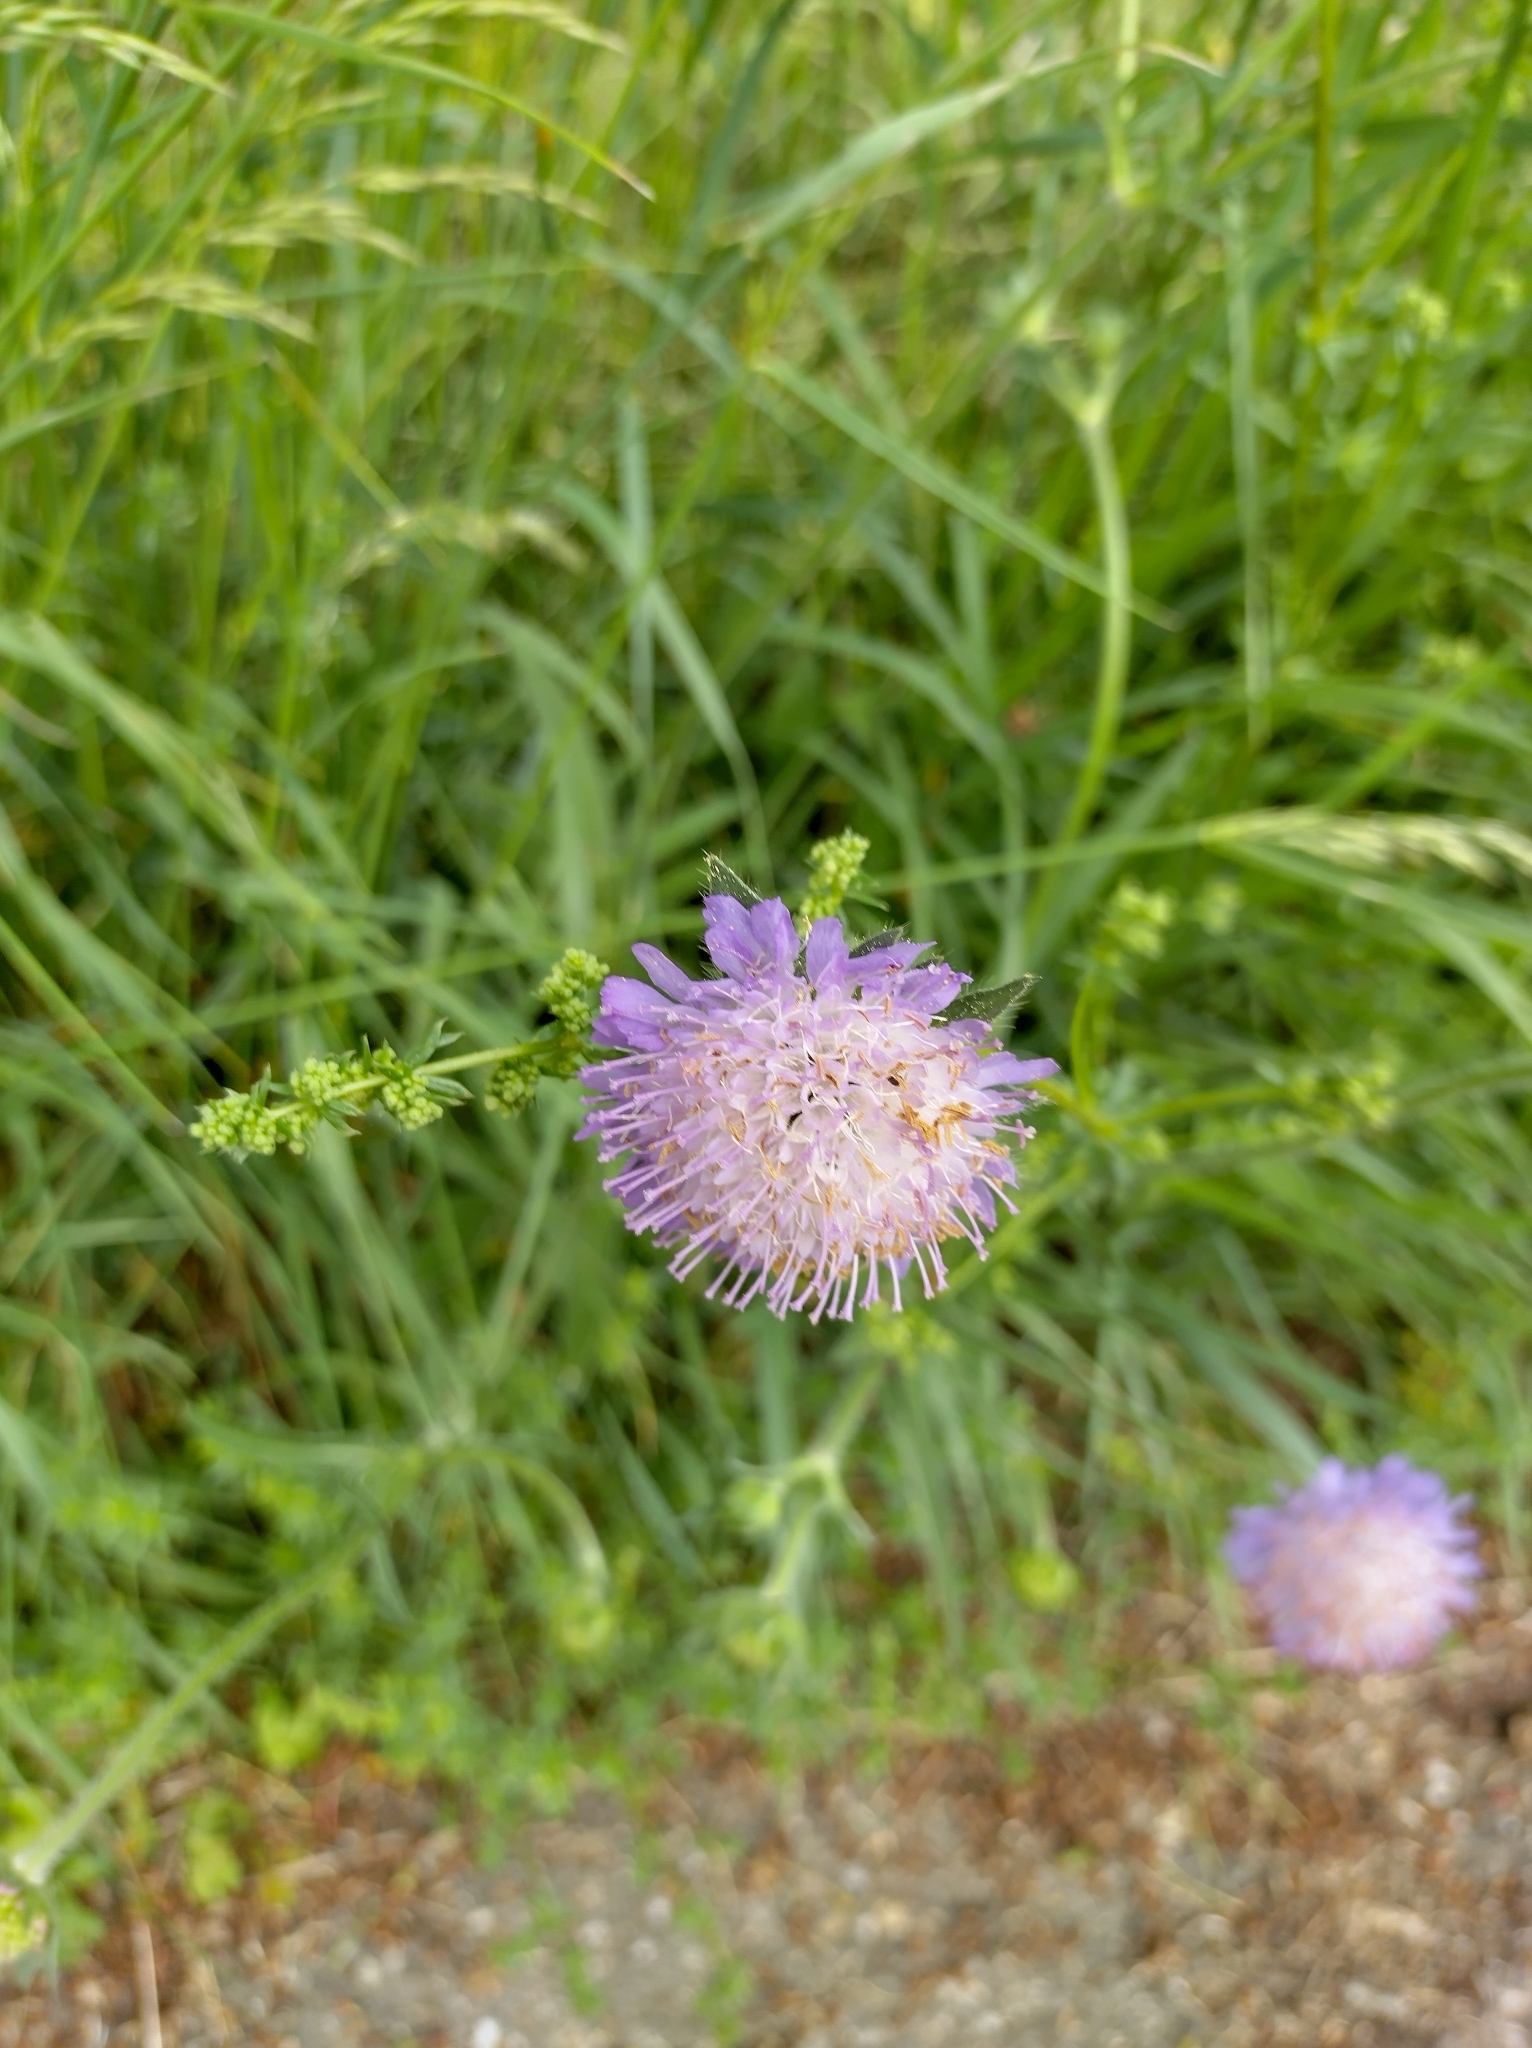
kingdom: Plantae
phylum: Tracheophyta
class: Magnoliopsida
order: Dipsacales
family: Caprifoliaceae
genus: Knautia
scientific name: Knautia arvensis
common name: Field scabiosa
